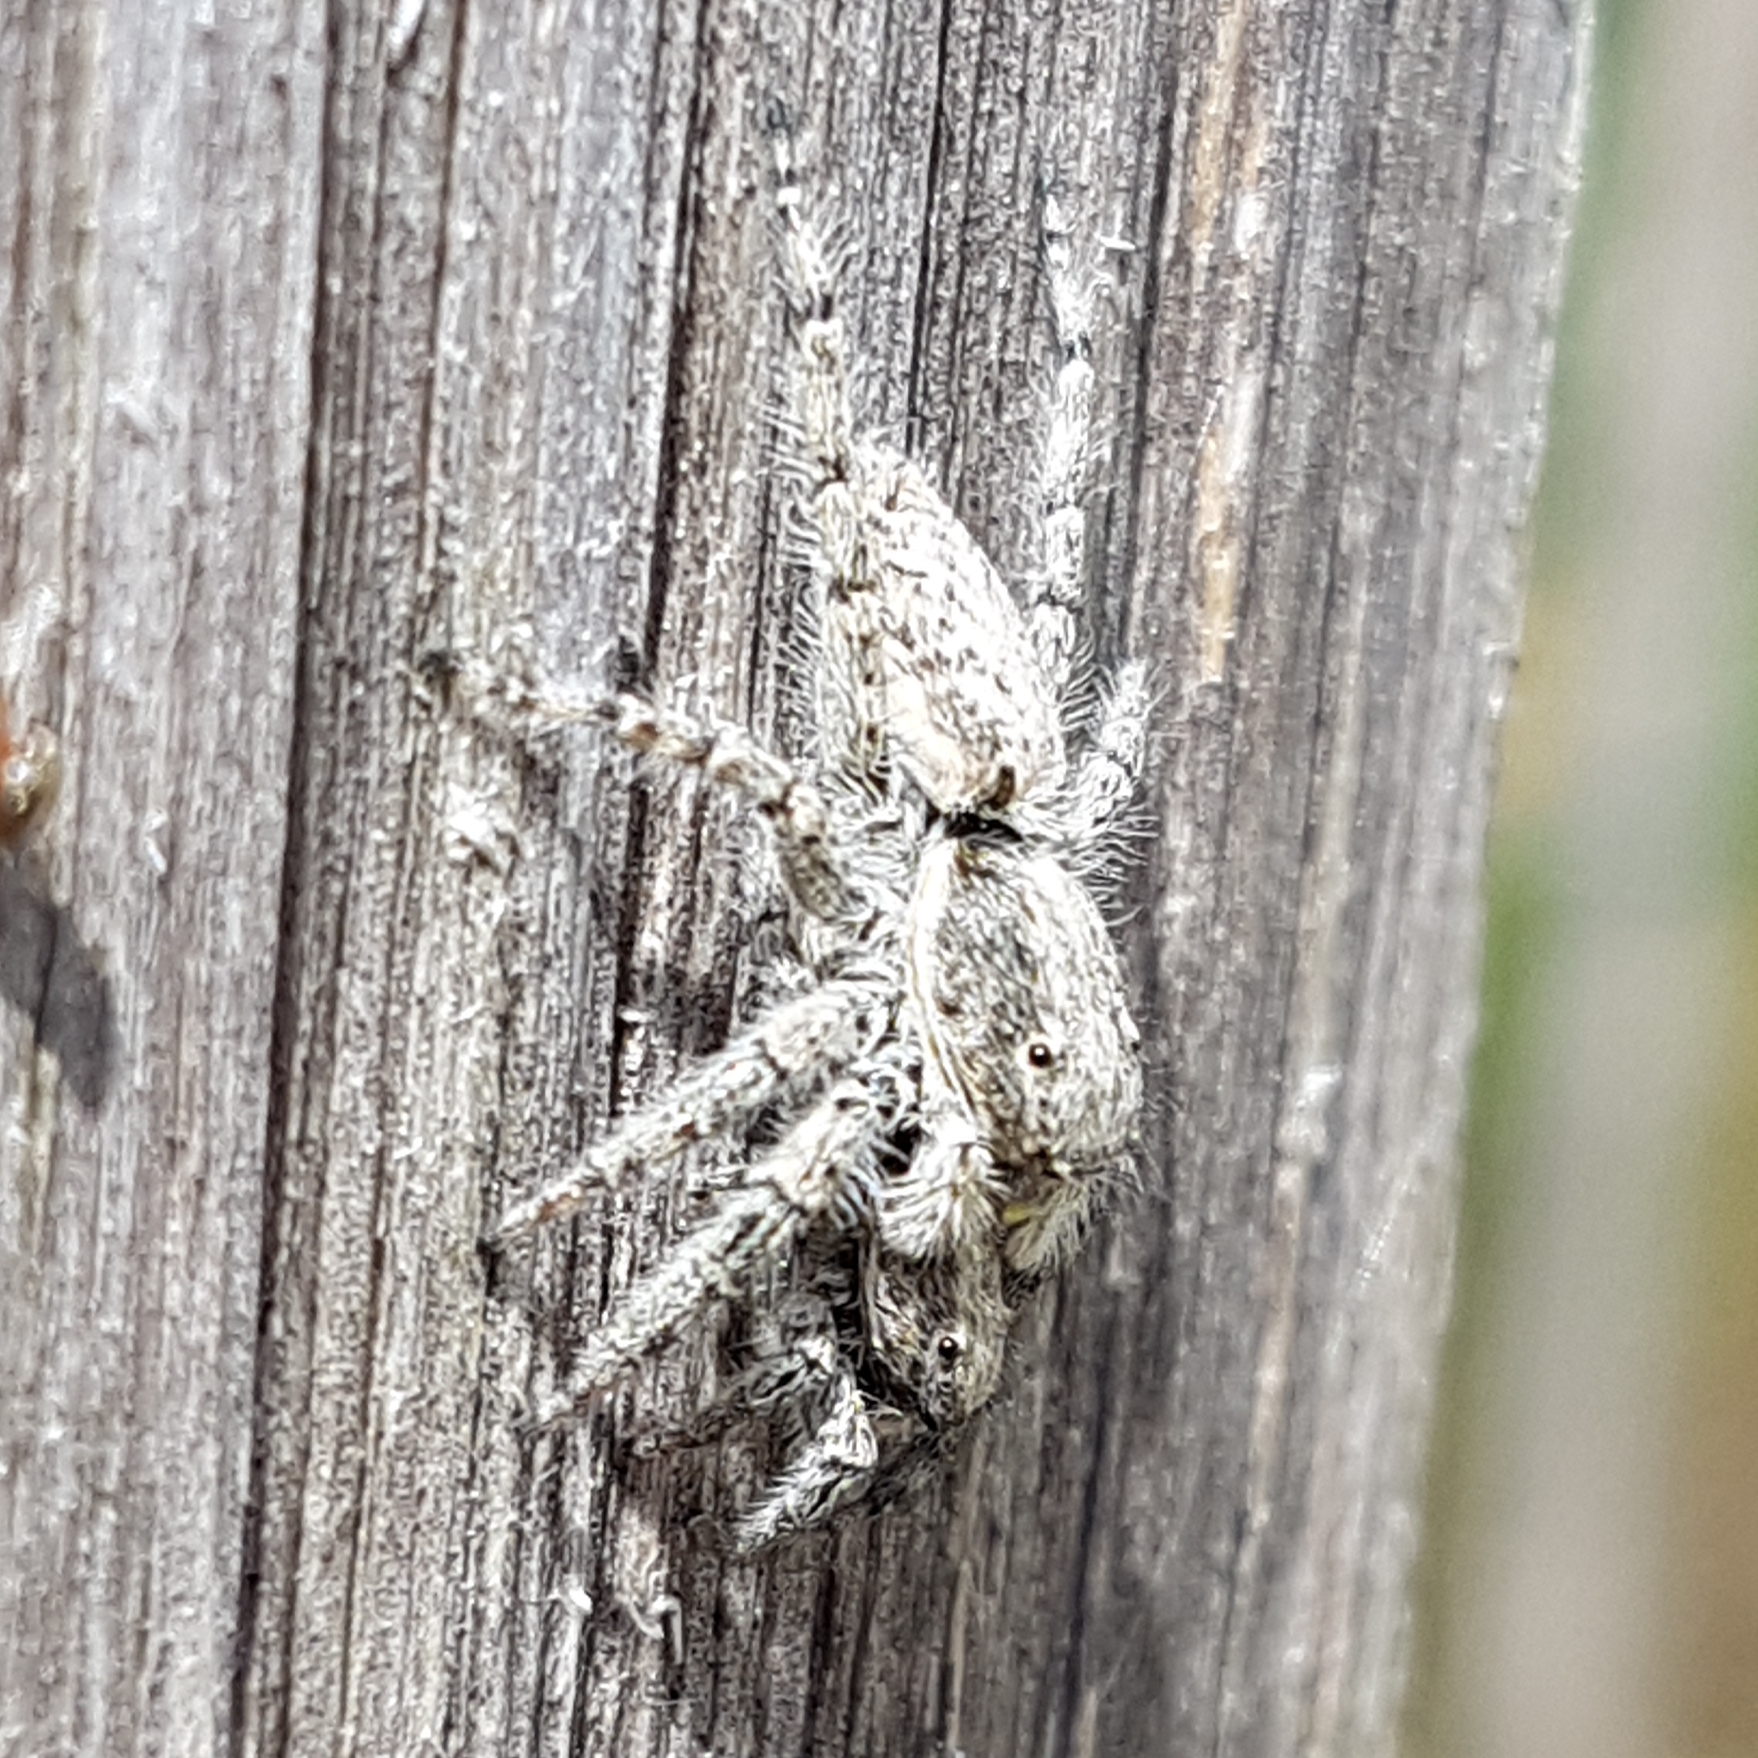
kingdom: Animalia
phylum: Arthropoda
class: Arachnida
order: Araneae
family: Salticidae
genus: Menemerus
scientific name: Menemerus taeniatus
